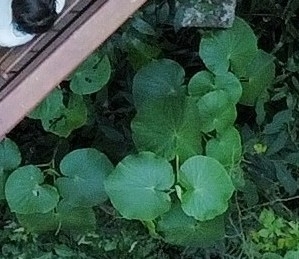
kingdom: Plantae
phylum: Tracheophyta
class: Magnoliopsida
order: Piperales
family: Piperaceae
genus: Piper
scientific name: Piper umbellatum
